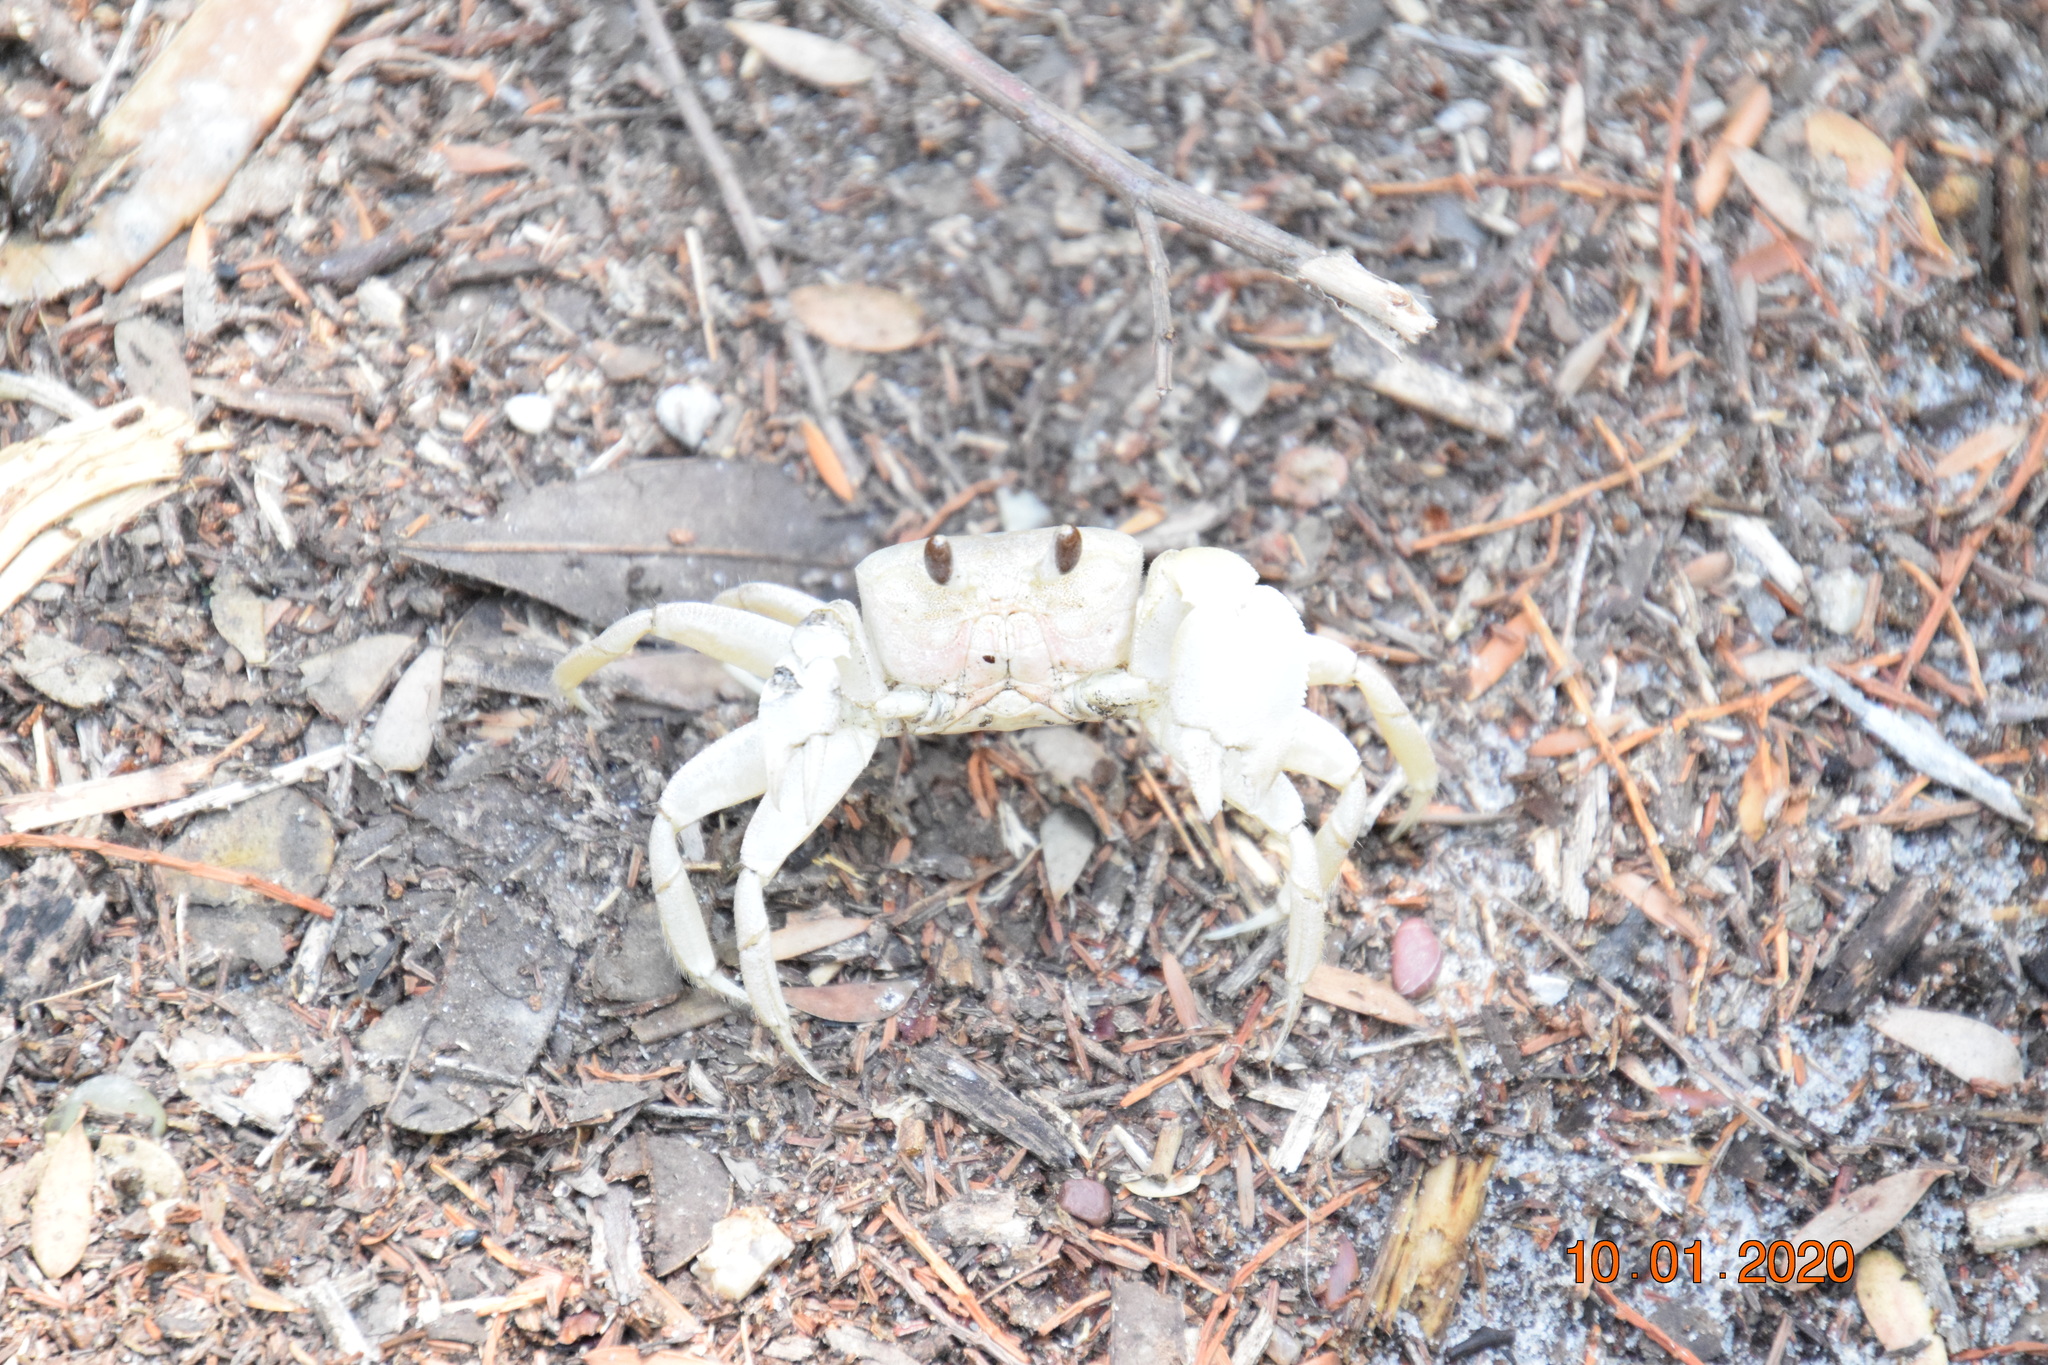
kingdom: Animalia
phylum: Arthropoda
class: Malacostraca
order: Decapoda
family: Ocypodidae
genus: Ocypode
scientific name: Ocypode cordimana
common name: Smooth-eyed ghost crab
